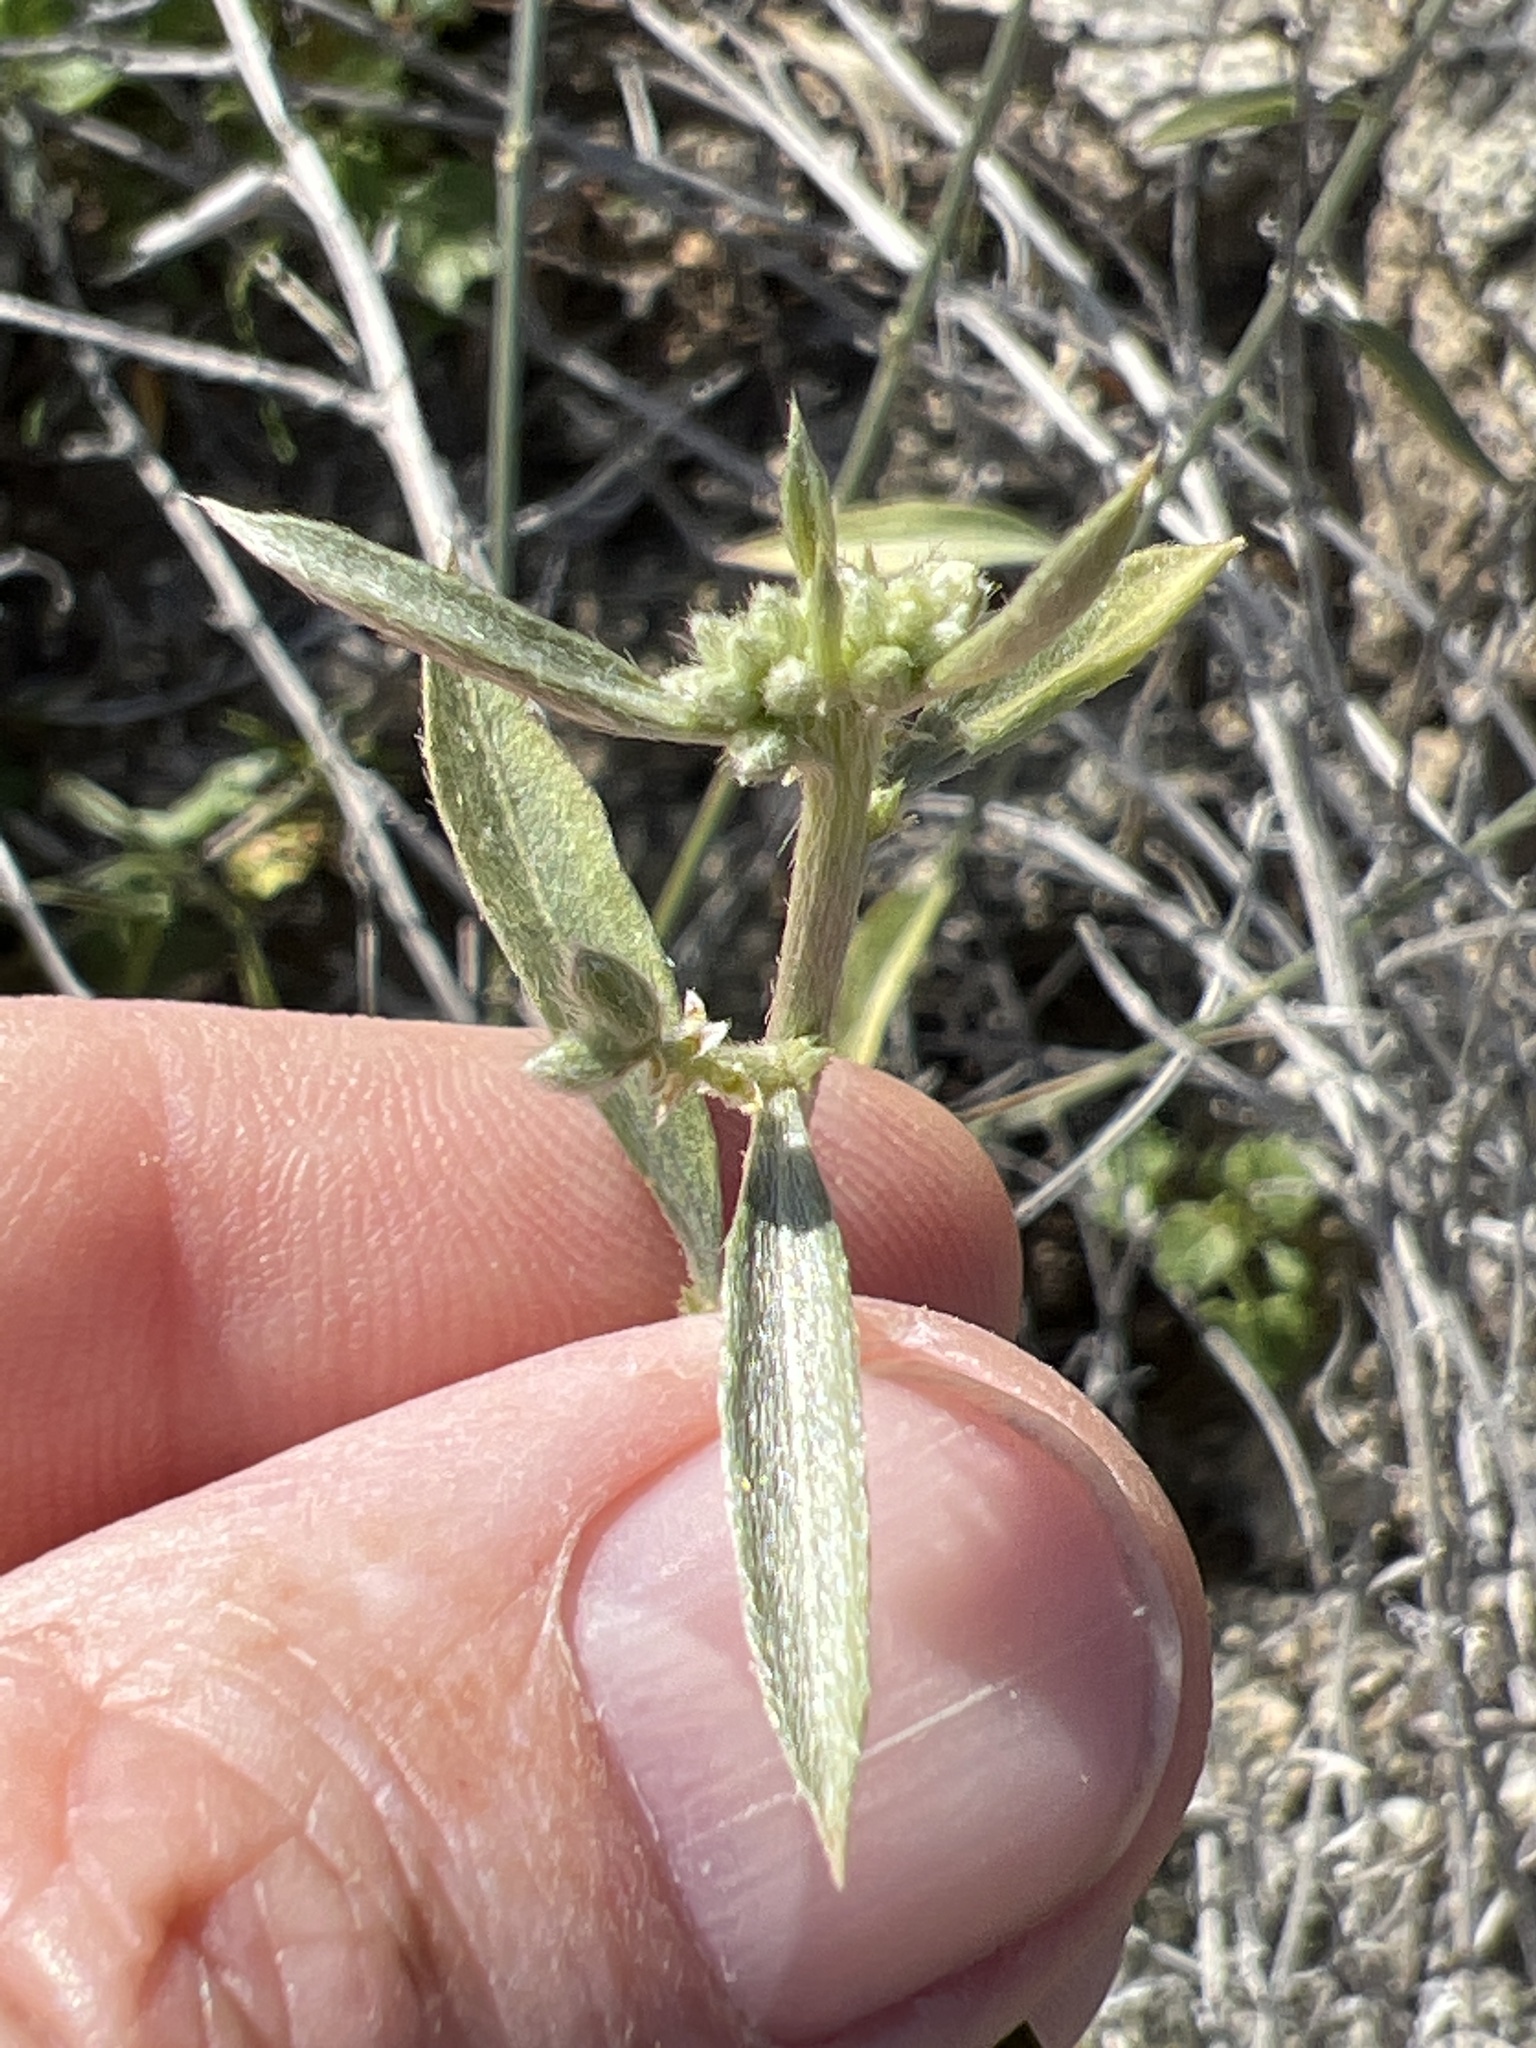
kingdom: Plantae
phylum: Tracheophyta
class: Magnoliopsida
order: Malpighiales
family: Euphorbiaceae
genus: Ditaxis
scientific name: Ditaxis lanceolata
